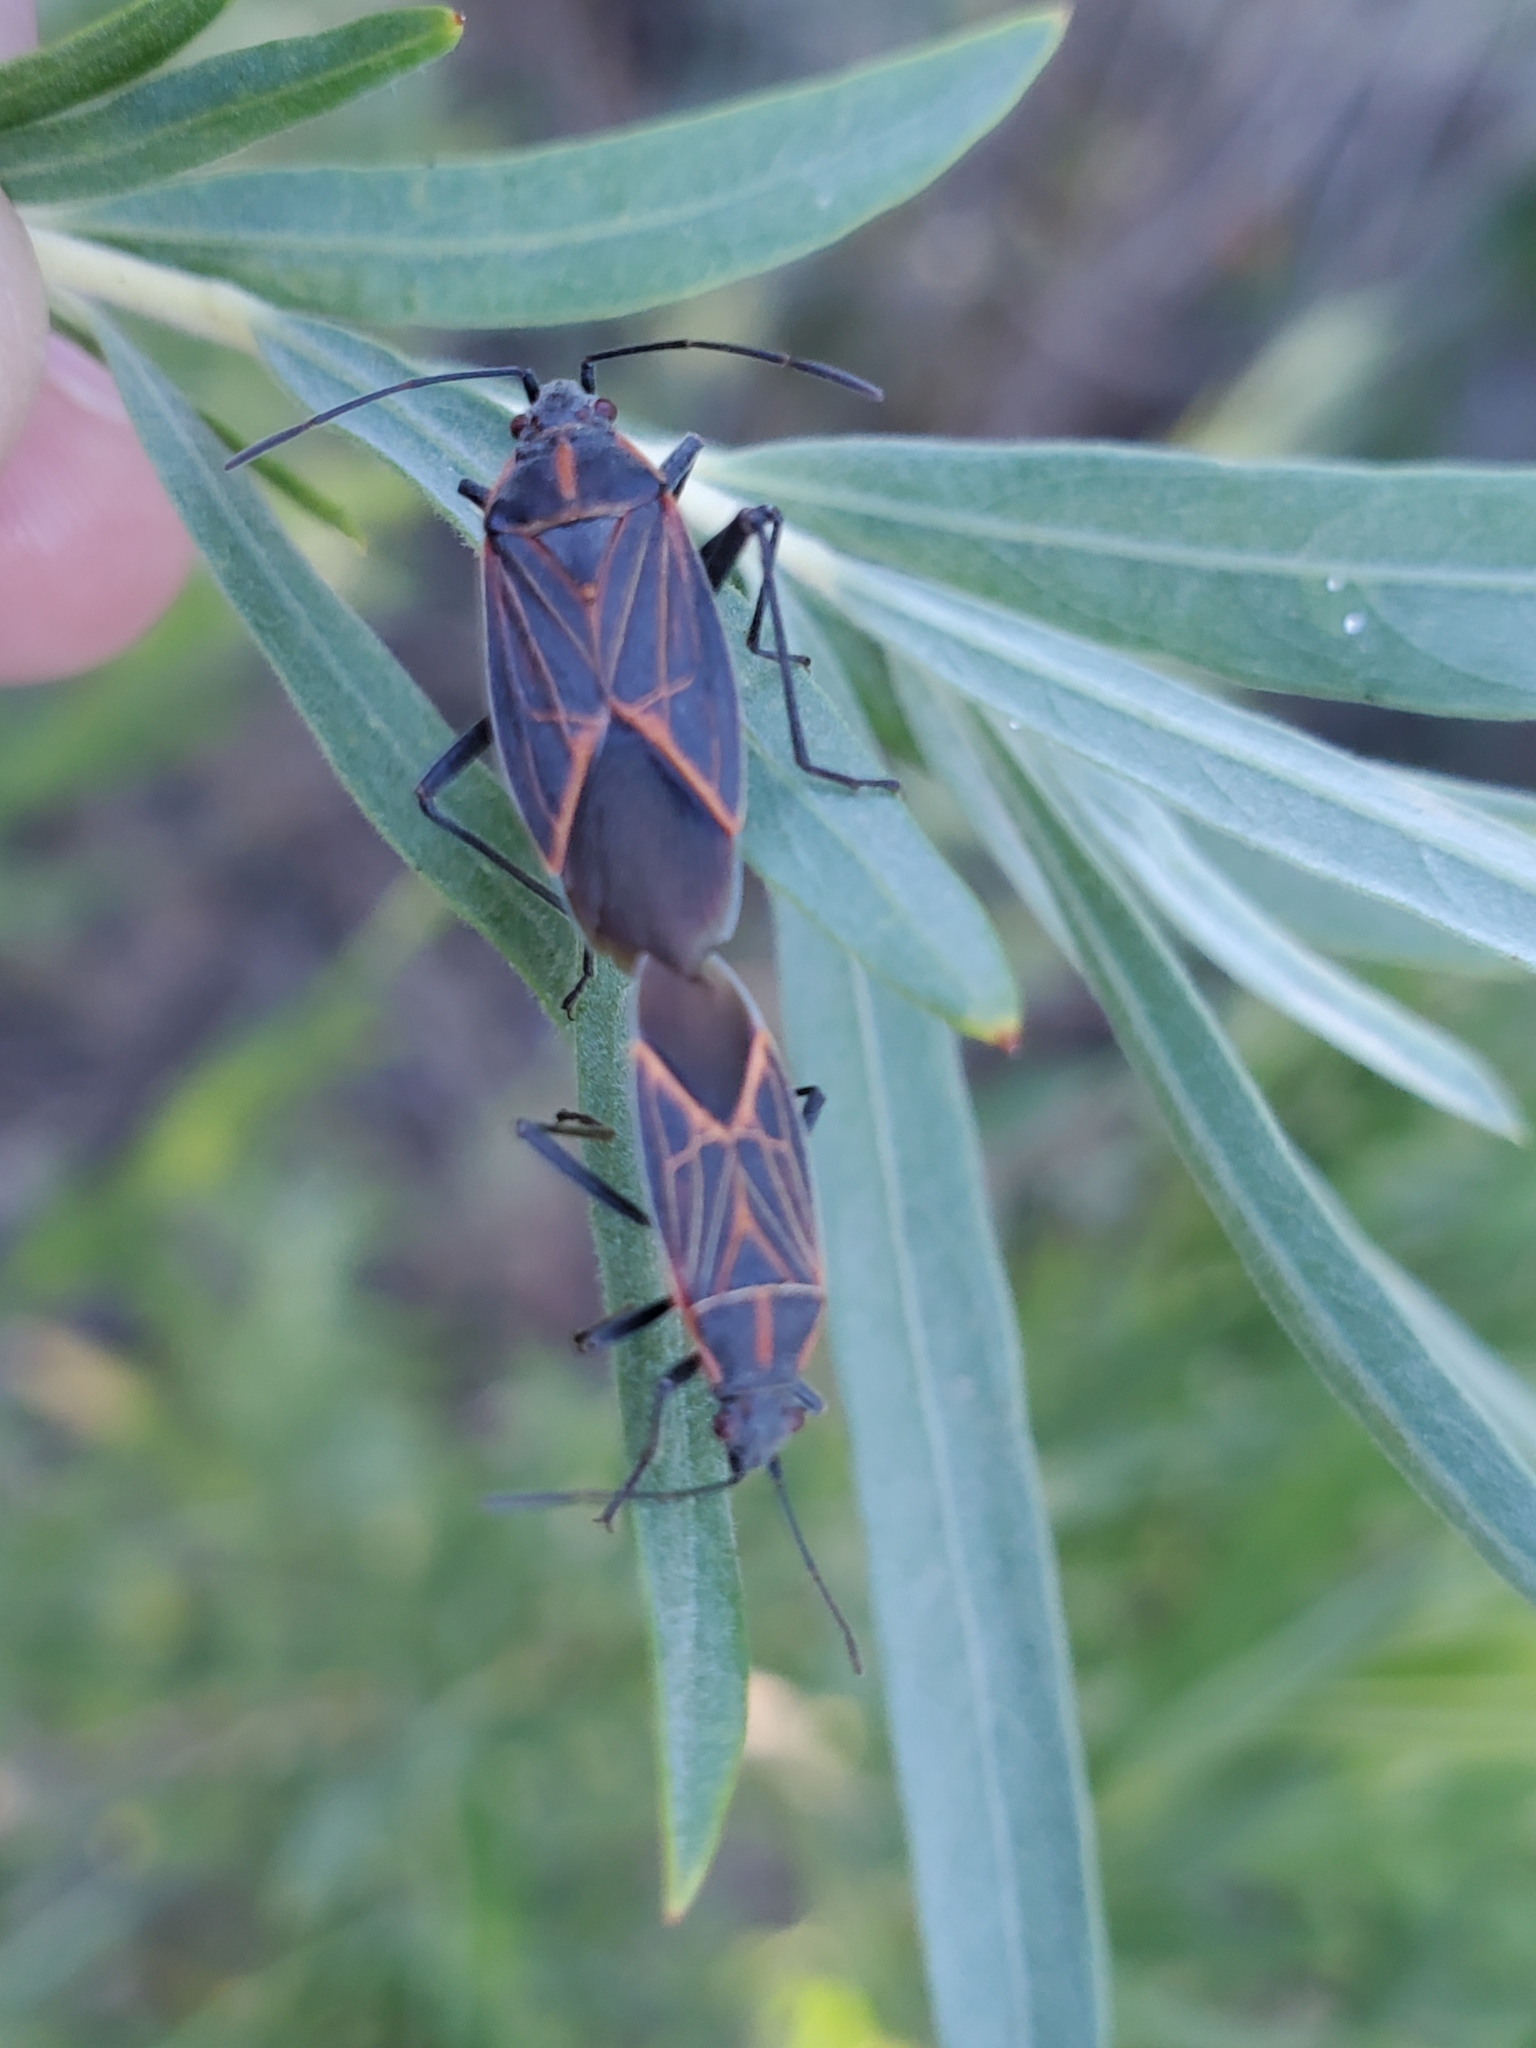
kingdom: Animalia
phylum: Arthropoda
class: Insecta
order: Hemiptera
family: Rhopalidae
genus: Boisea
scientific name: Boisea rubrolineata
